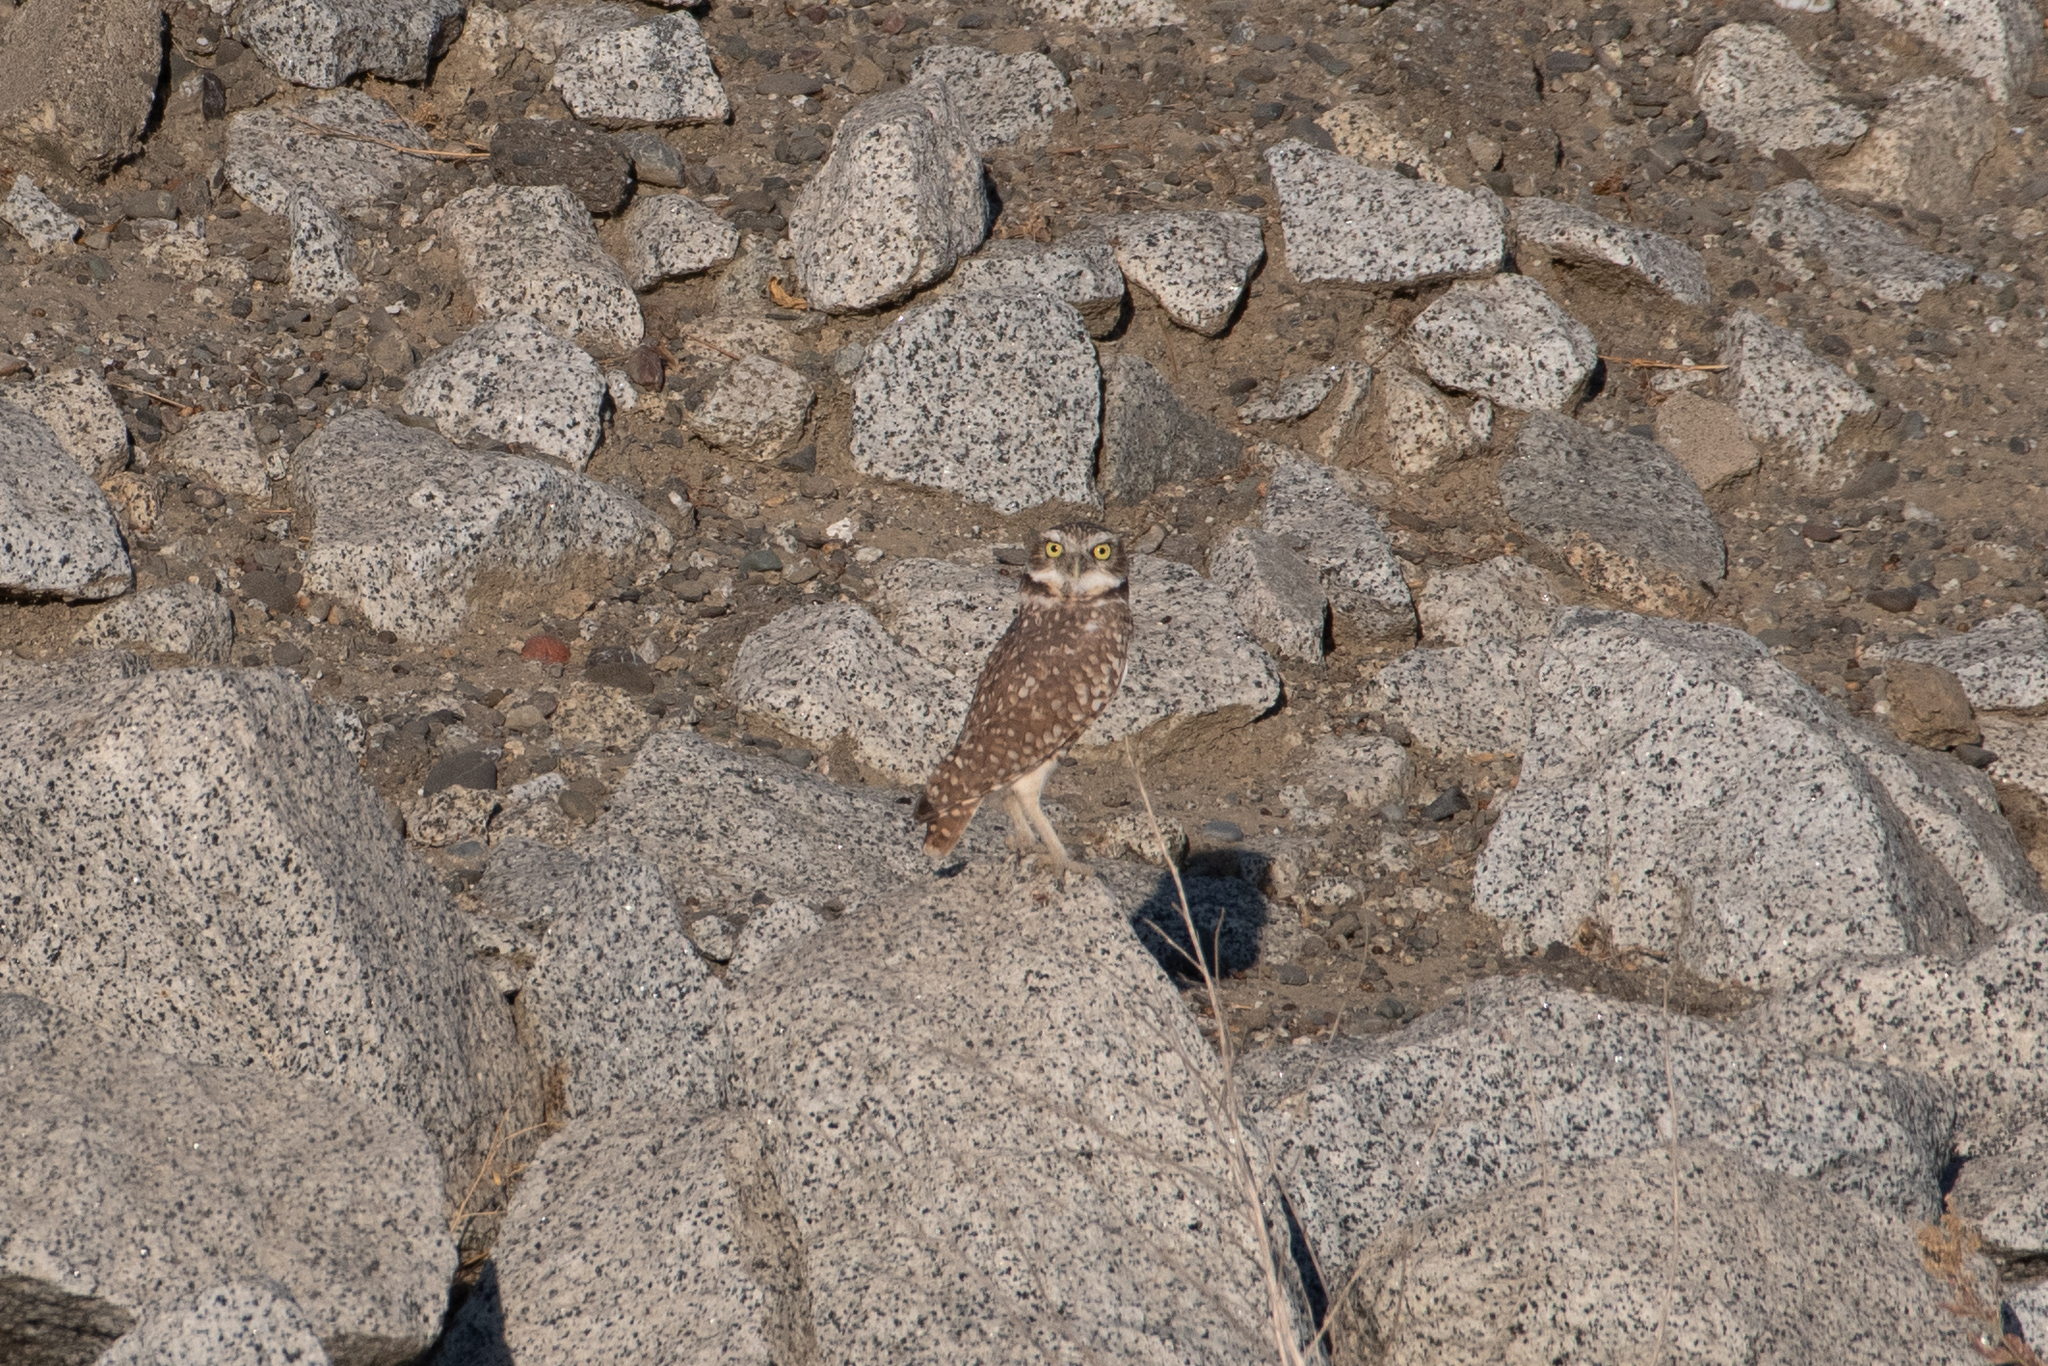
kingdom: Animalia
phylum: Chordata
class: Aves
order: Strigiformes
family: Strigidae
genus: Athene
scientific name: Athene cunicularia
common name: Burrowing owl
